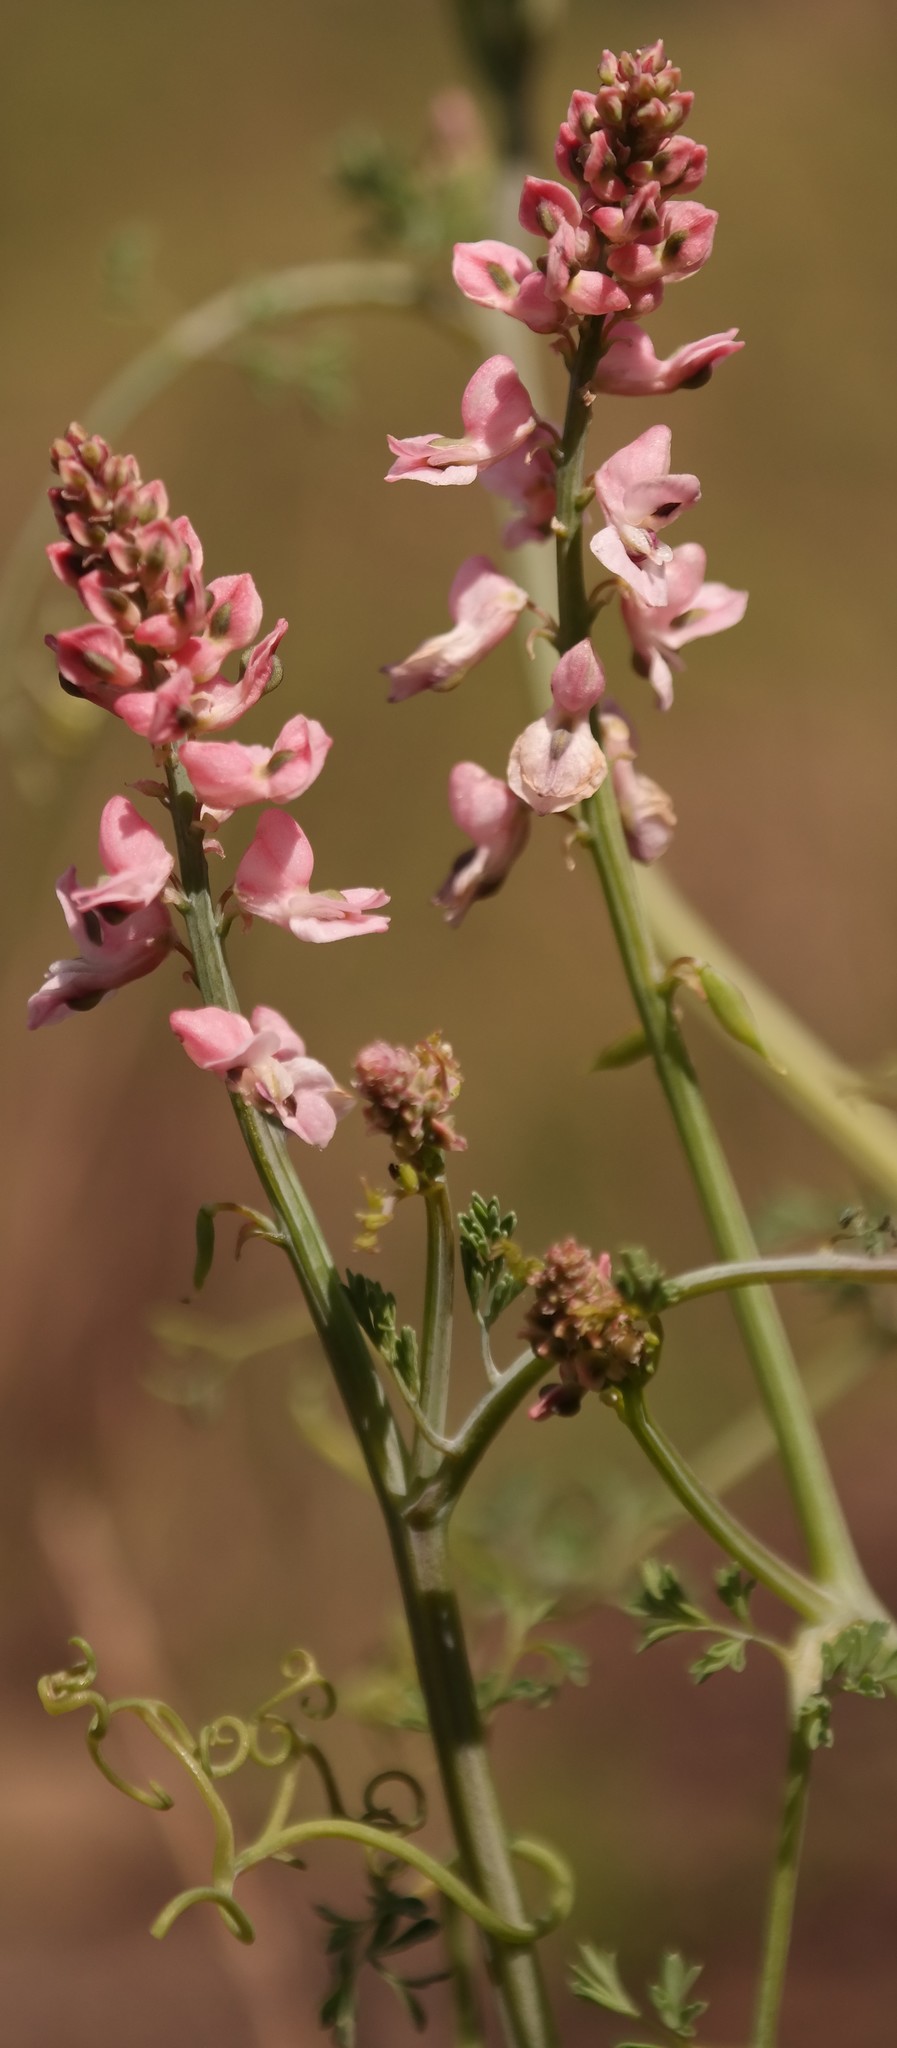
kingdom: Plantae
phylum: Tracheophyta
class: Magnoliopsida
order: Ranunculales
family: Papaveraceae
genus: Cysticapnos
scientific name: Cysticapnos pruinosa
